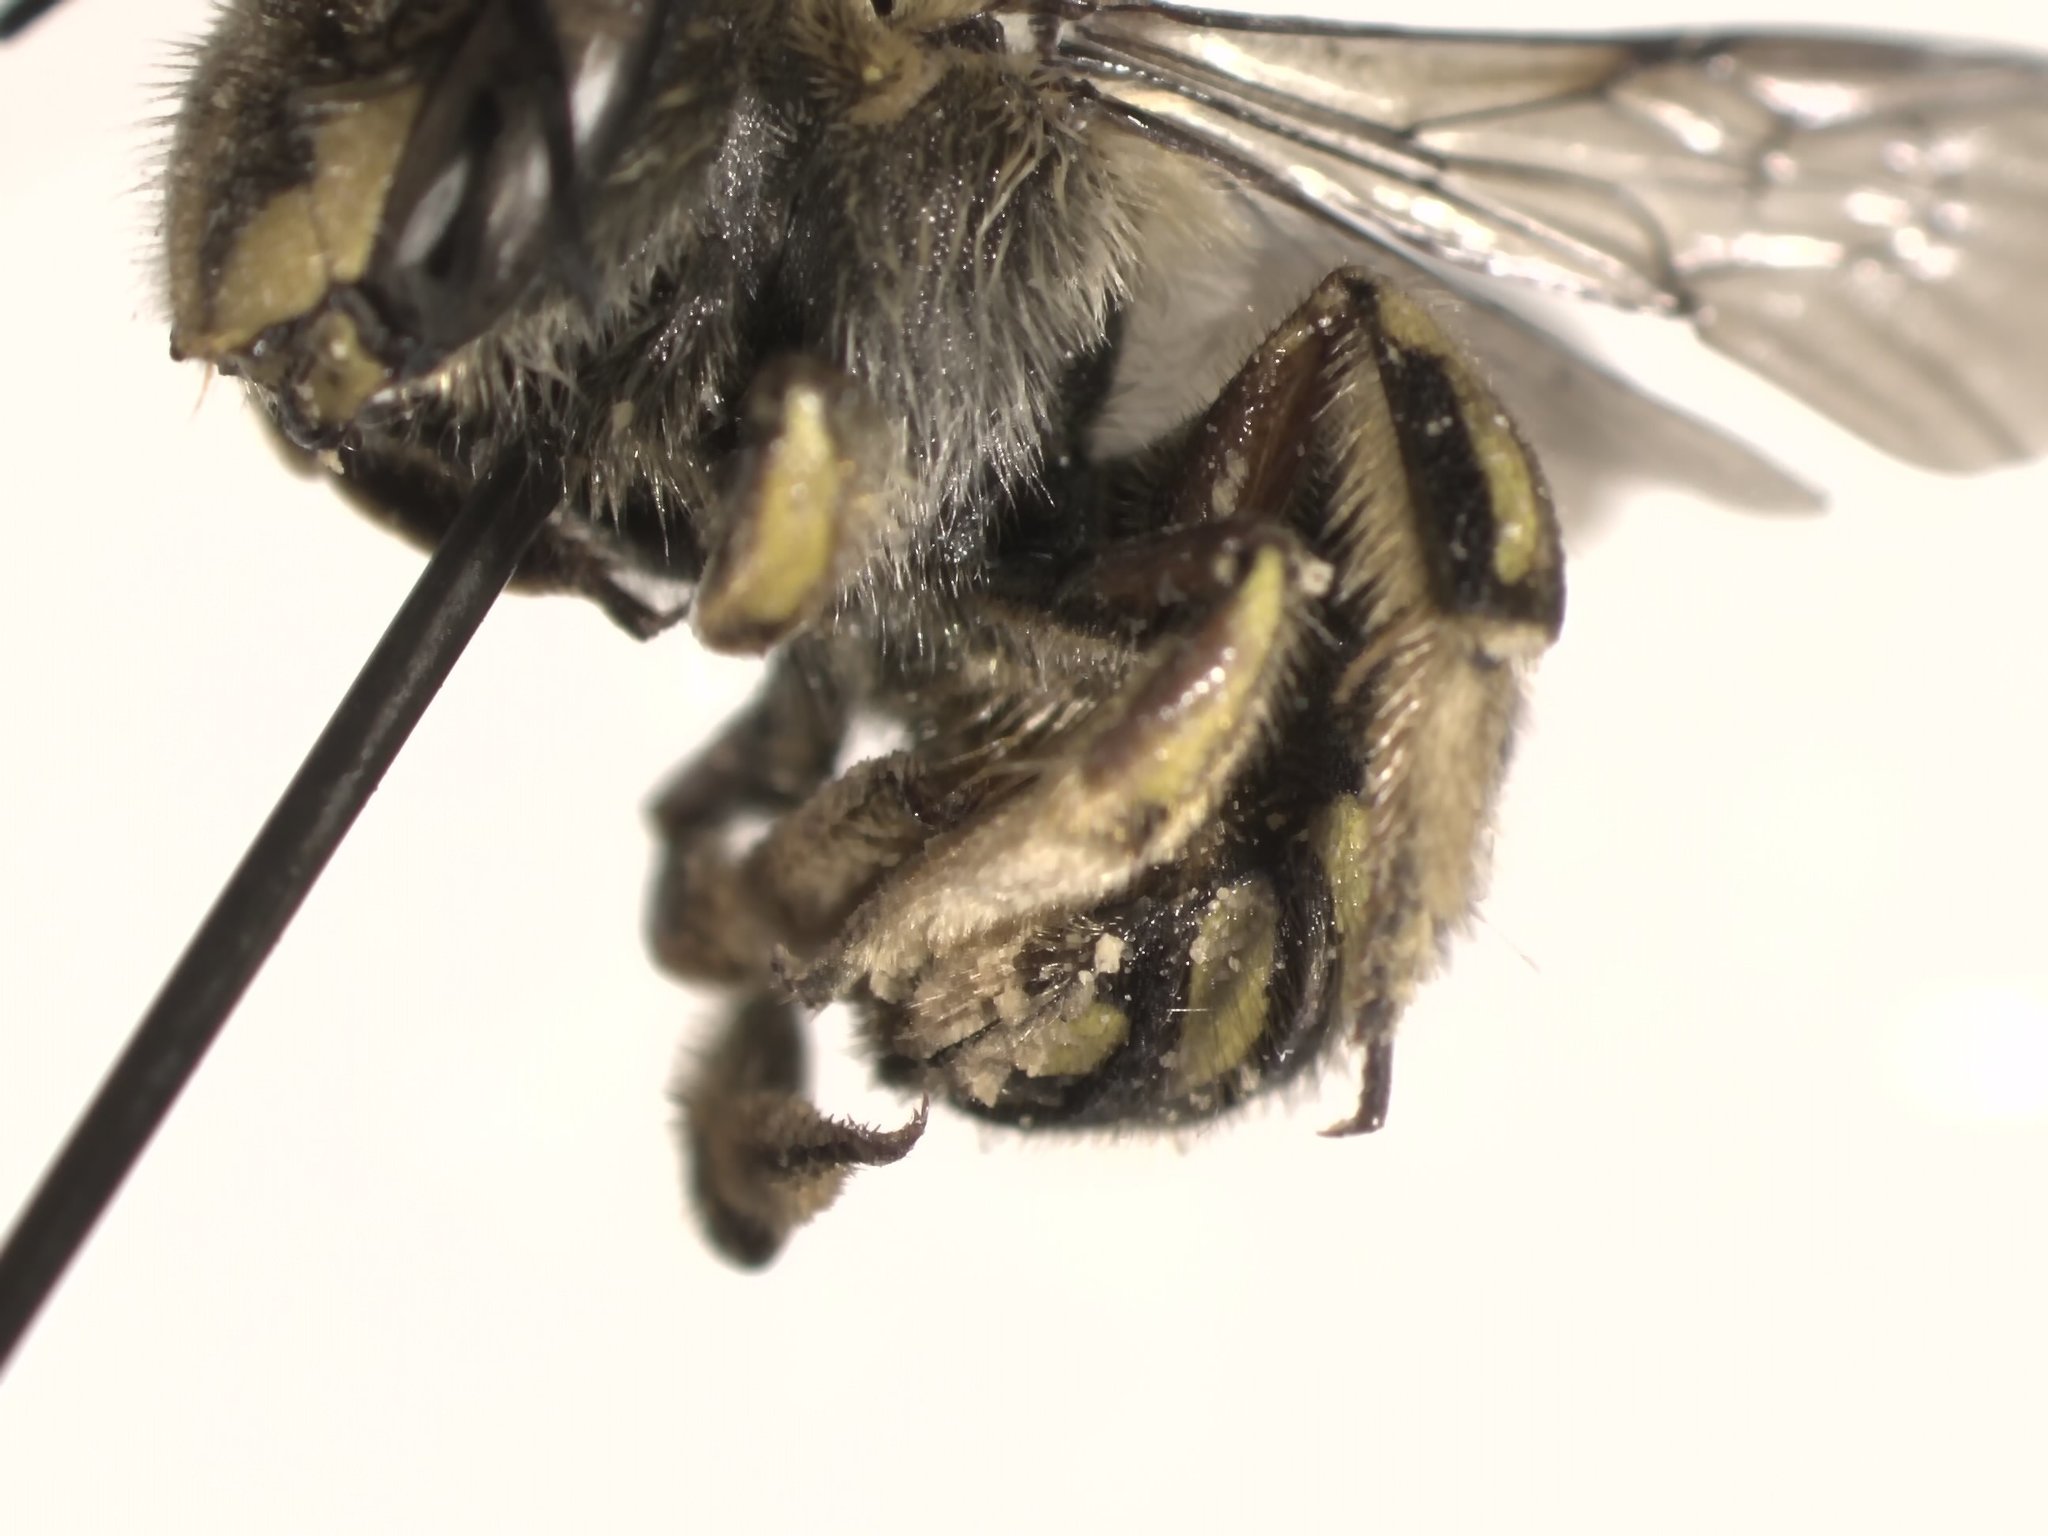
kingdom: Animalia
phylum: Arthropoda
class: Insecta
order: Hymenoptera
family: Megachilidae
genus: Anthidium
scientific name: Anthidium manicatum
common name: Wool carder bee
